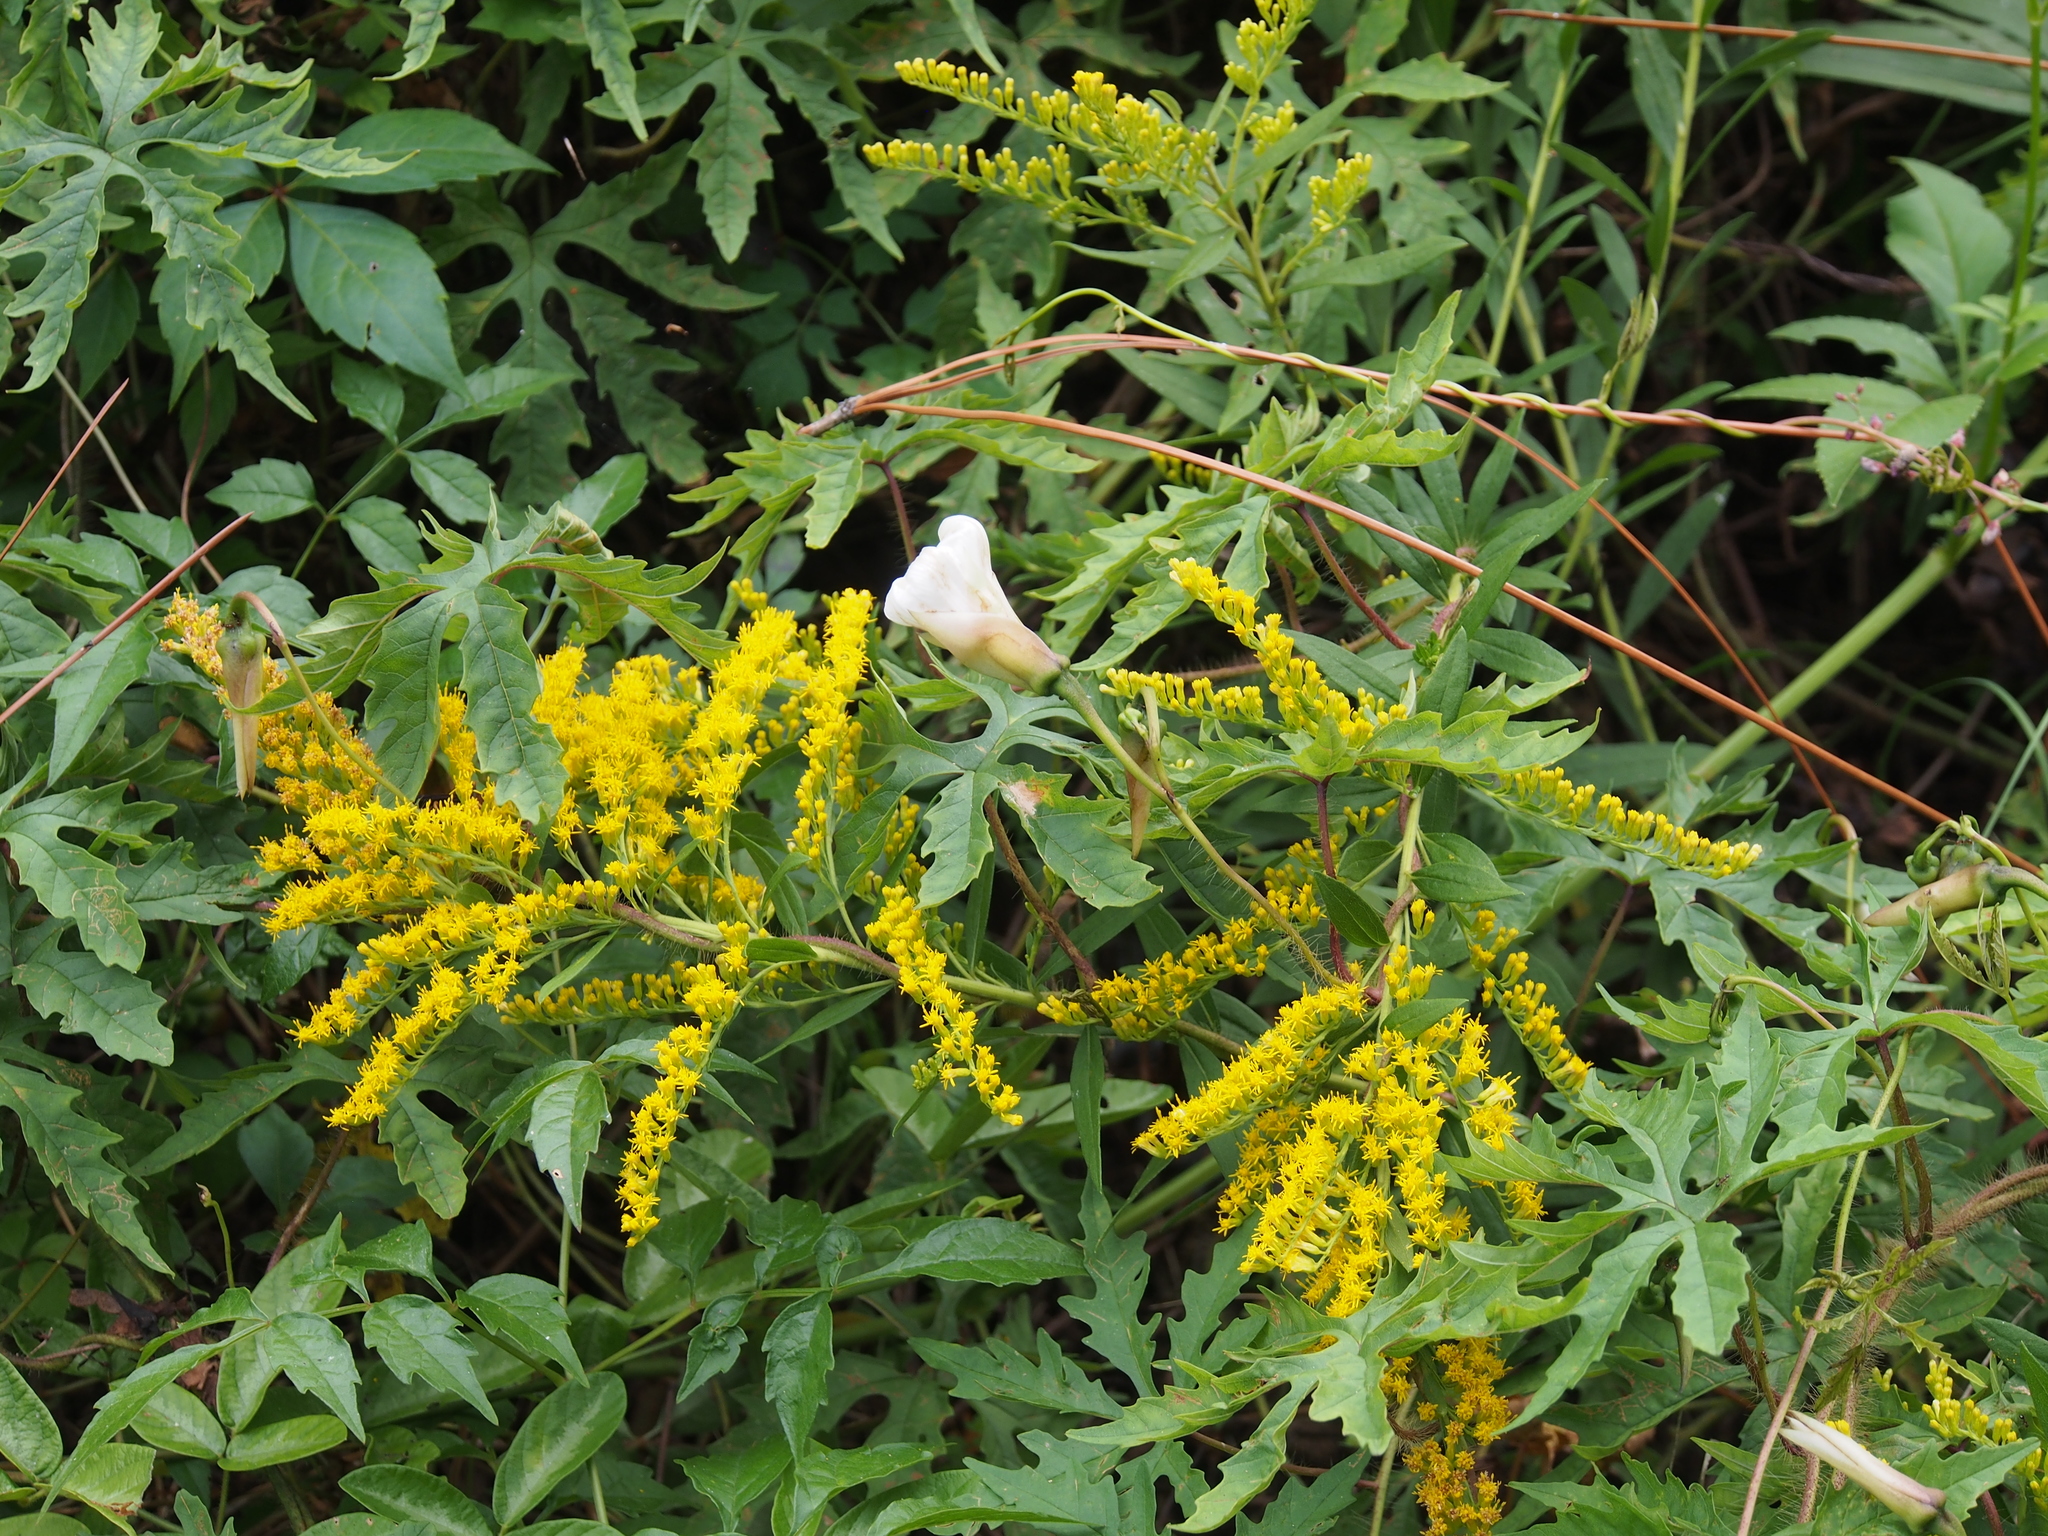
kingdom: Plantae
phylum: Tracheophyta
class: Magnoliopsida
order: Solanales
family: Convolvulaceae
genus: Distimake
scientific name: Distimake dissectus
